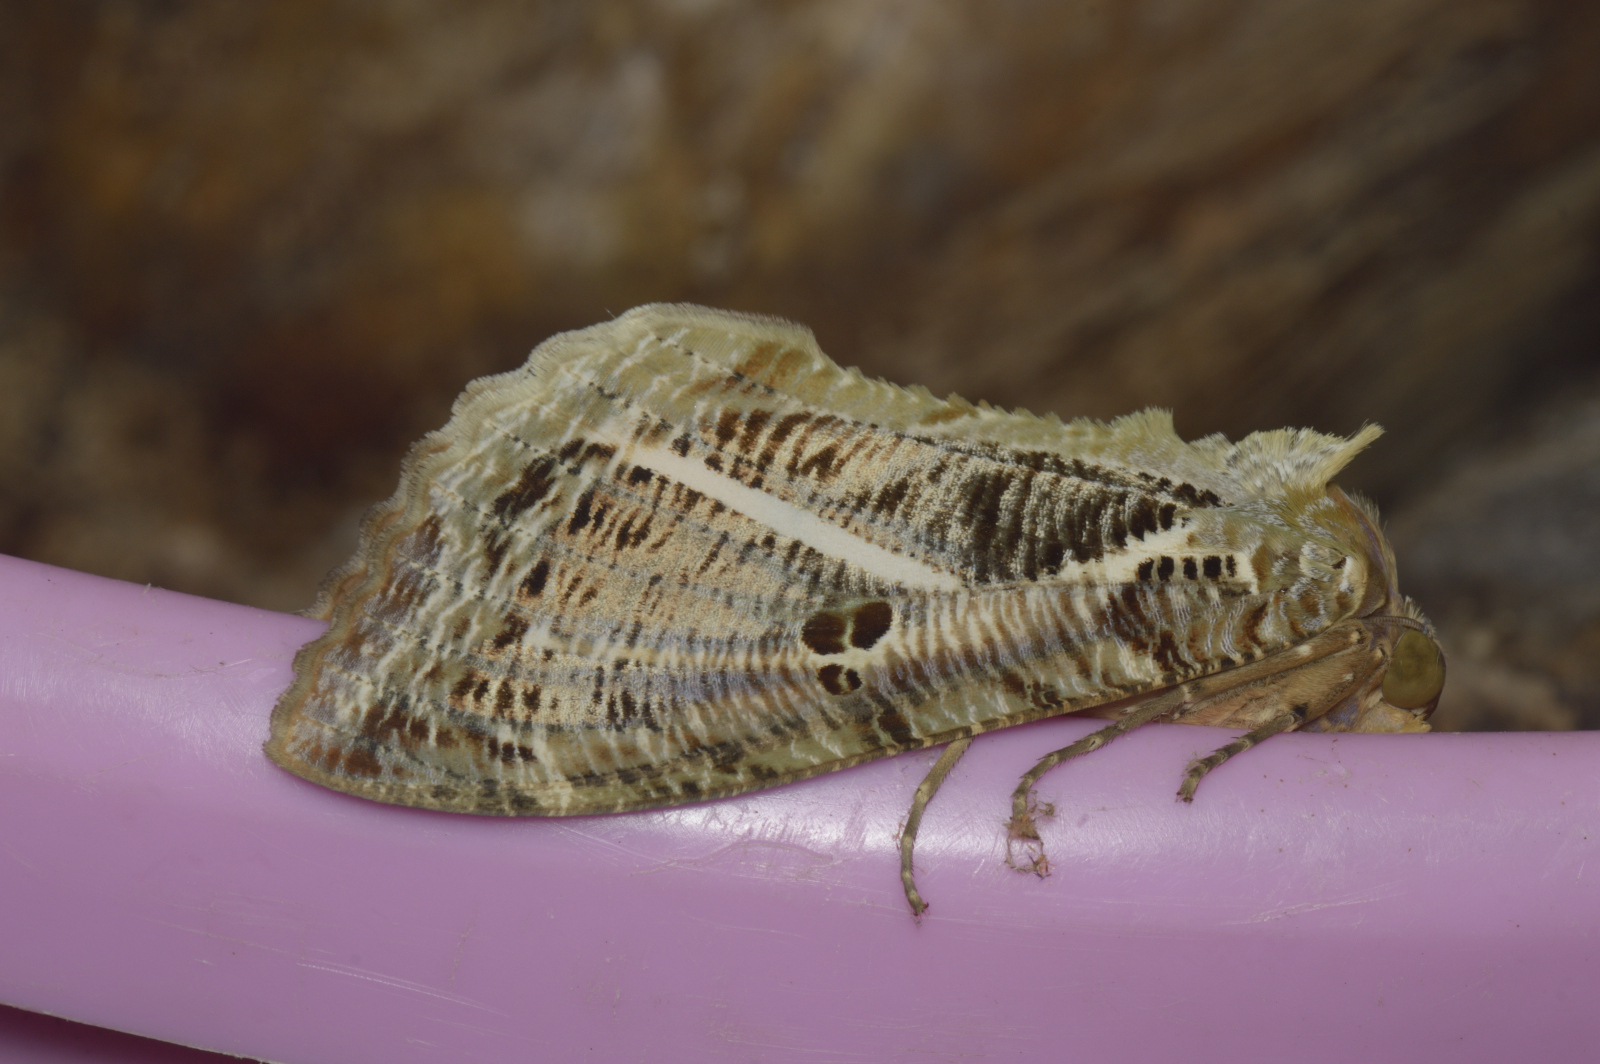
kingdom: Animalia
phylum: Arthropoda
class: Insecta
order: Lepidoptera
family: Erebidae
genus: Eudocima
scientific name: Eudocima materna
